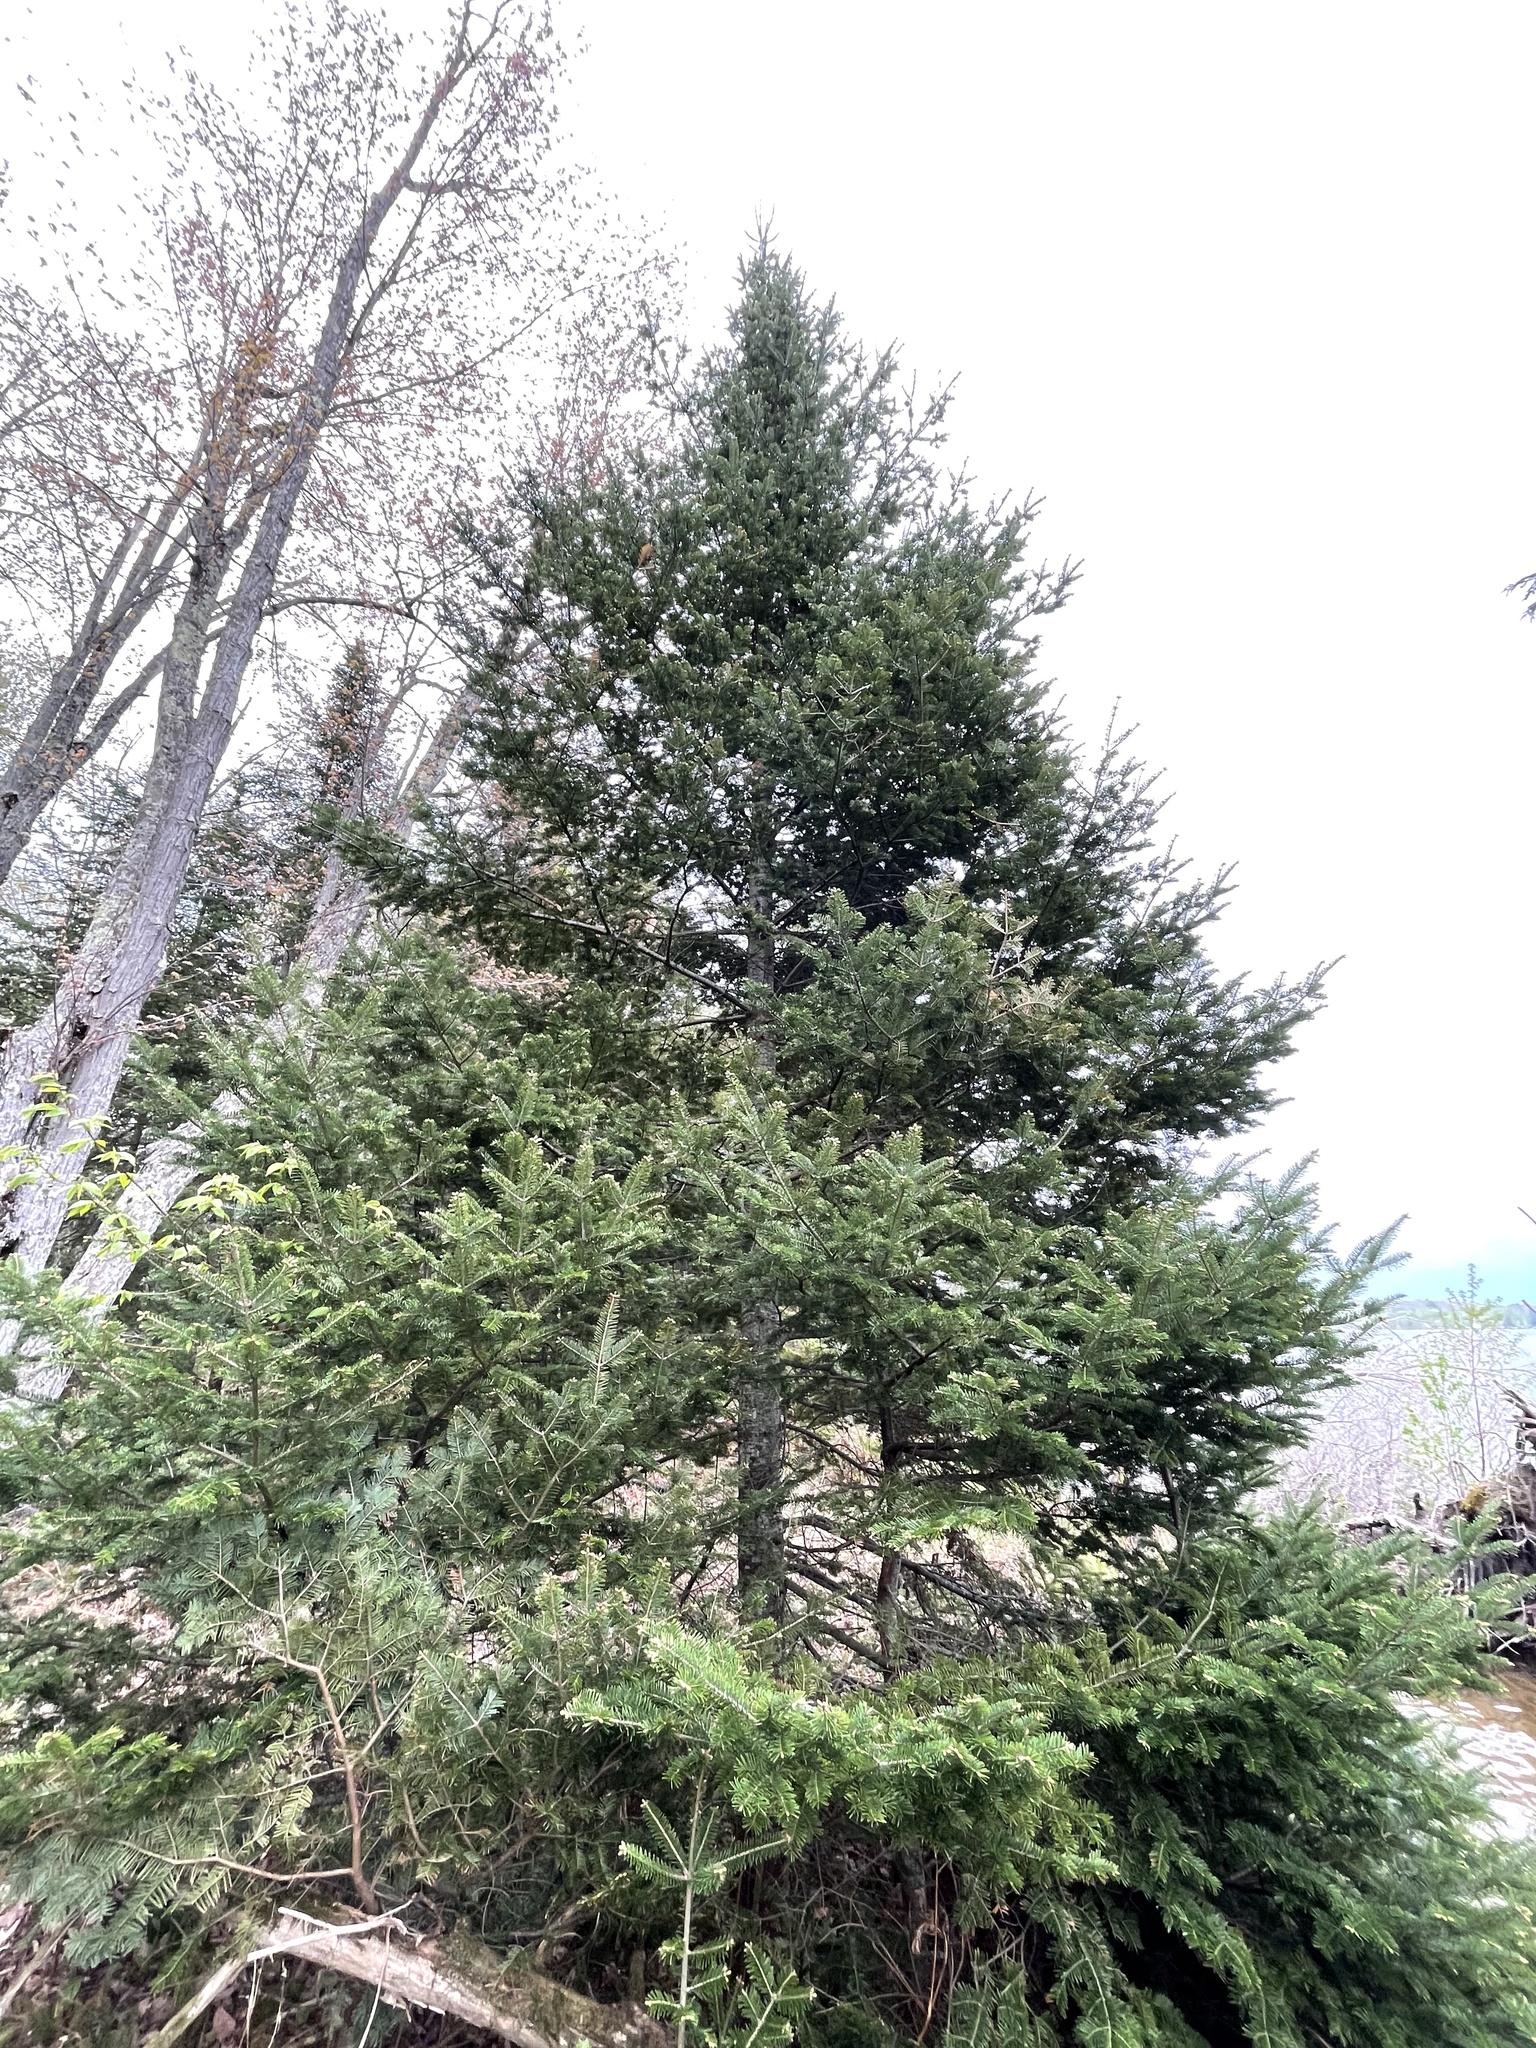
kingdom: Plantae
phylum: Tracheophyta
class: Pinopsida
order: Pinales
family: Pinaceae
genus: Abies
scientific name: Abies balsamea
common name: Balsam fir
